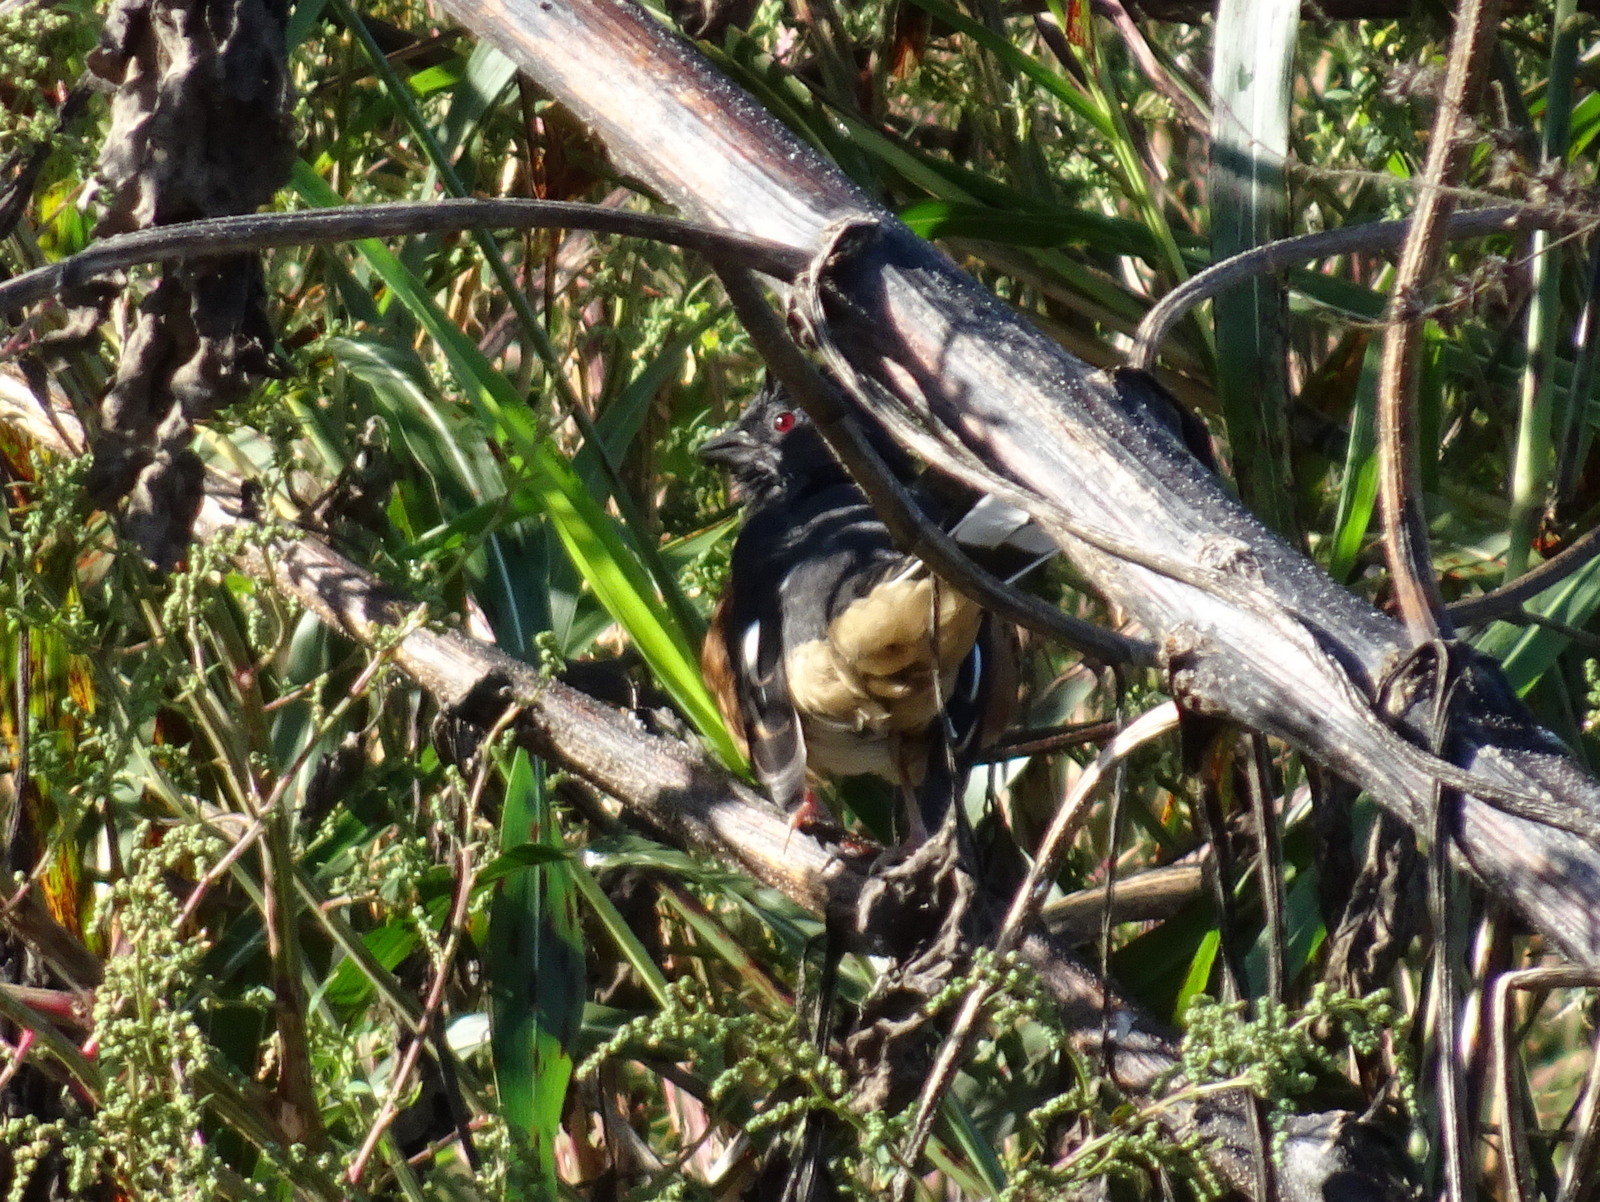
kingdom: Animalia
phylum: Chordata
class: Aves
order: Passeriformes
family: Passerellidae
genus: Pipilo
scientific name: Pipilo erythrophthalmus
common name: Eastern towhee
